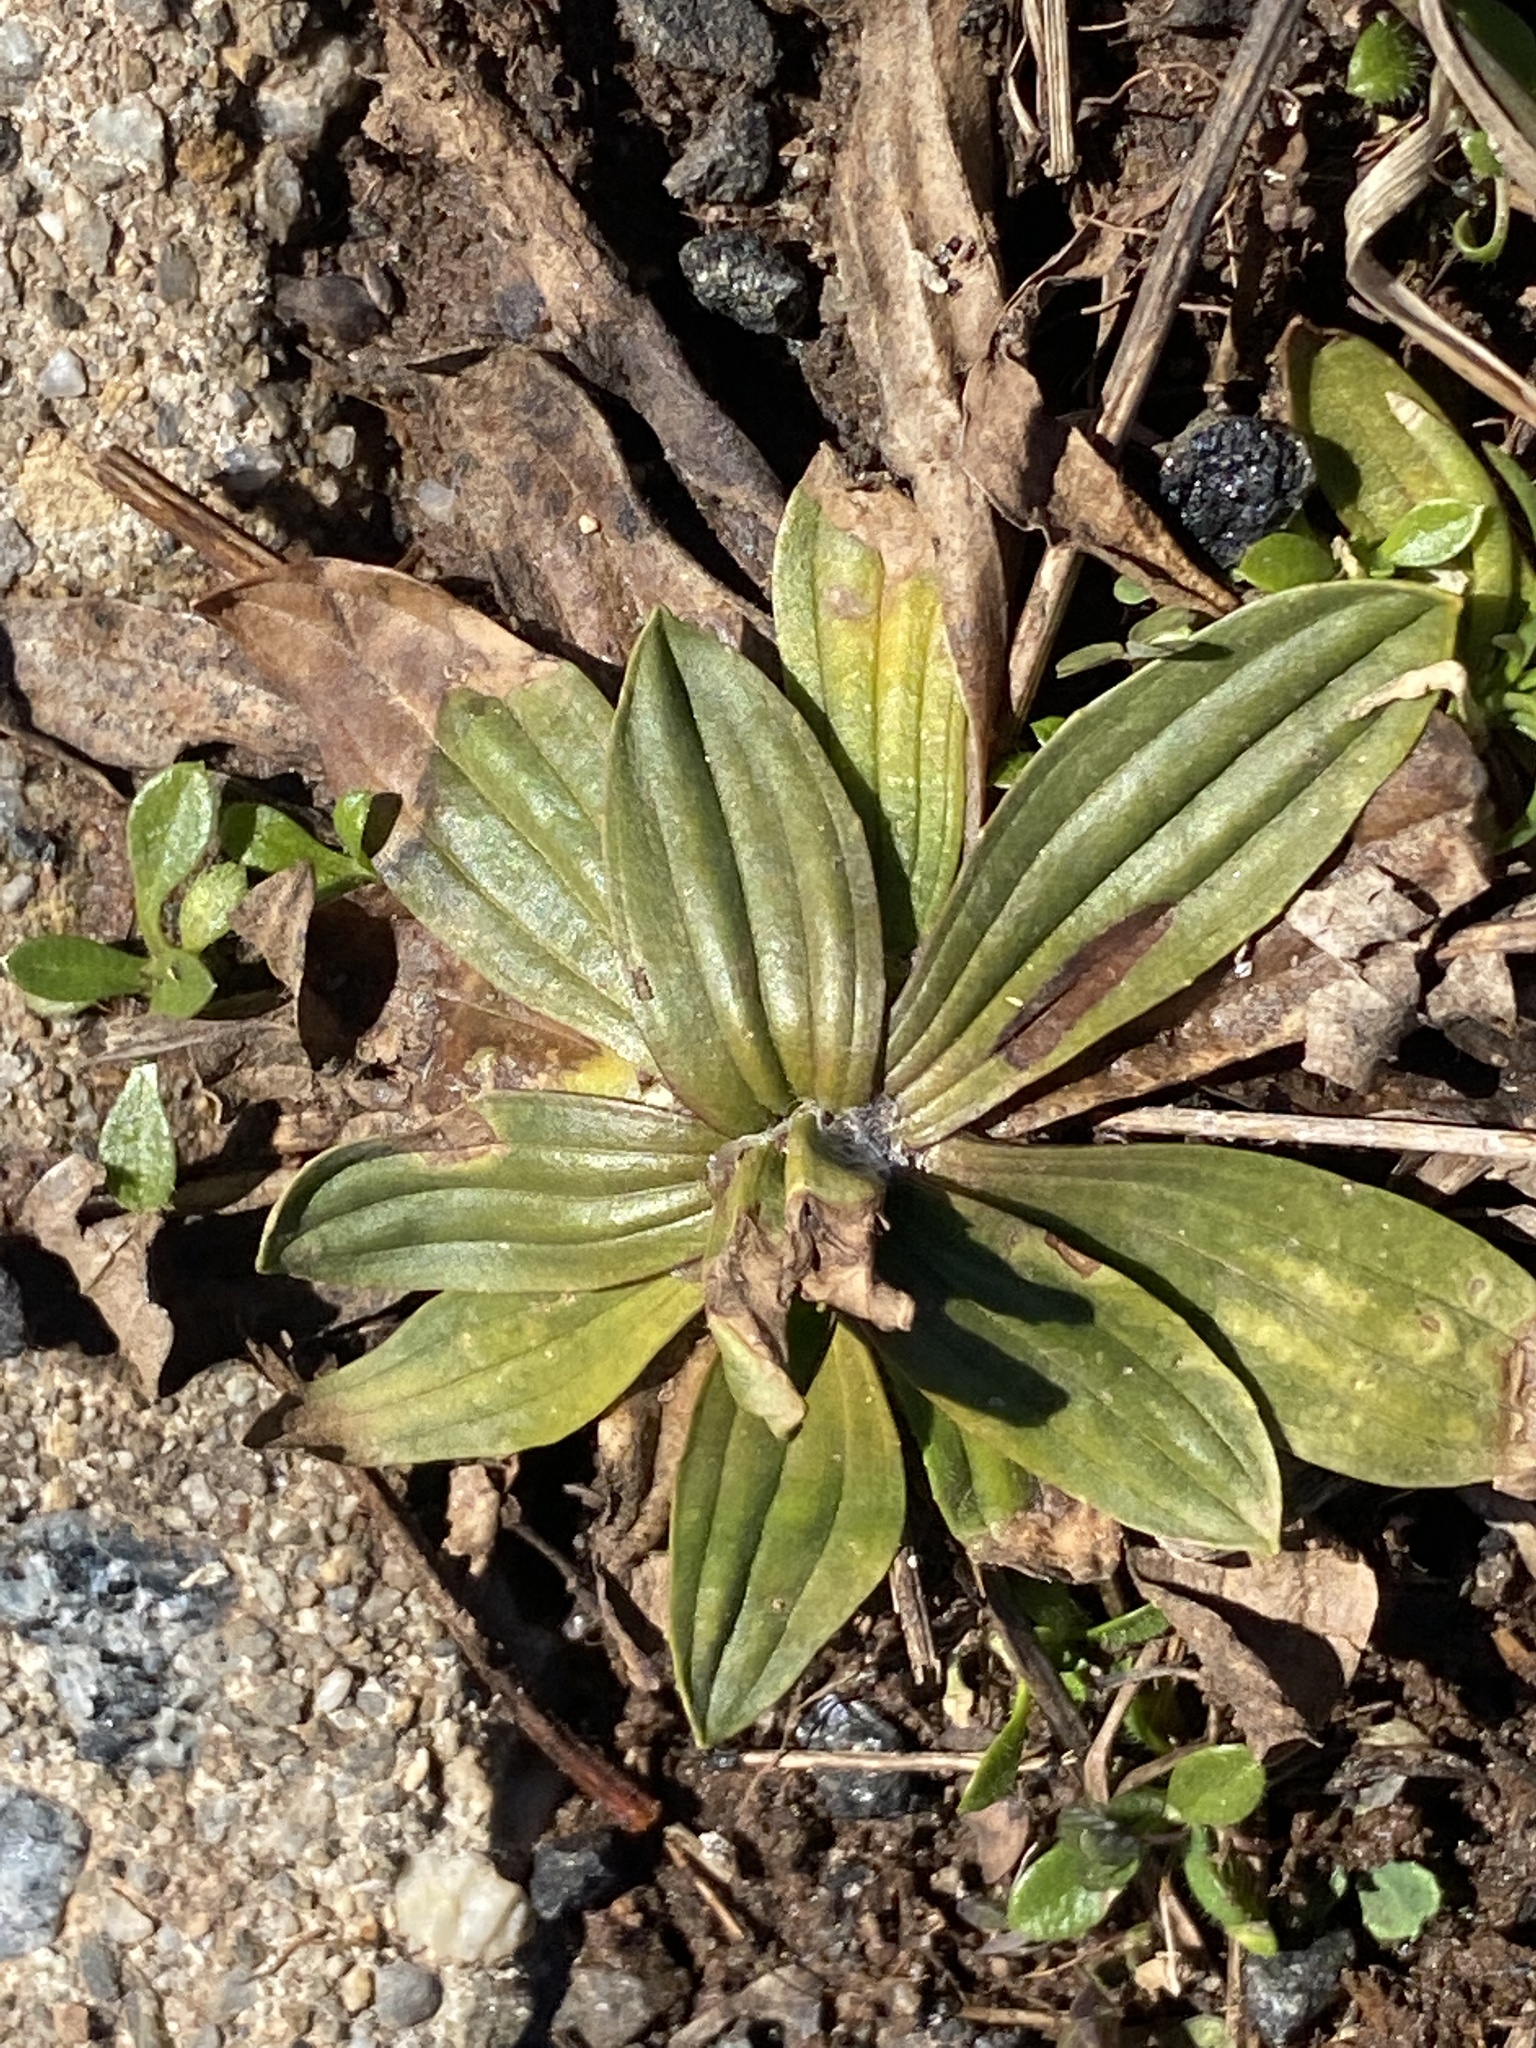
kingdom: Plantae
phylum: Tracheophyta
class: Magnoliopsida
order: Lamiales
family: Plantaginaceae
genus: Plantago
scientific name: Plantago lanceolata
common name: Ribwort plantain
